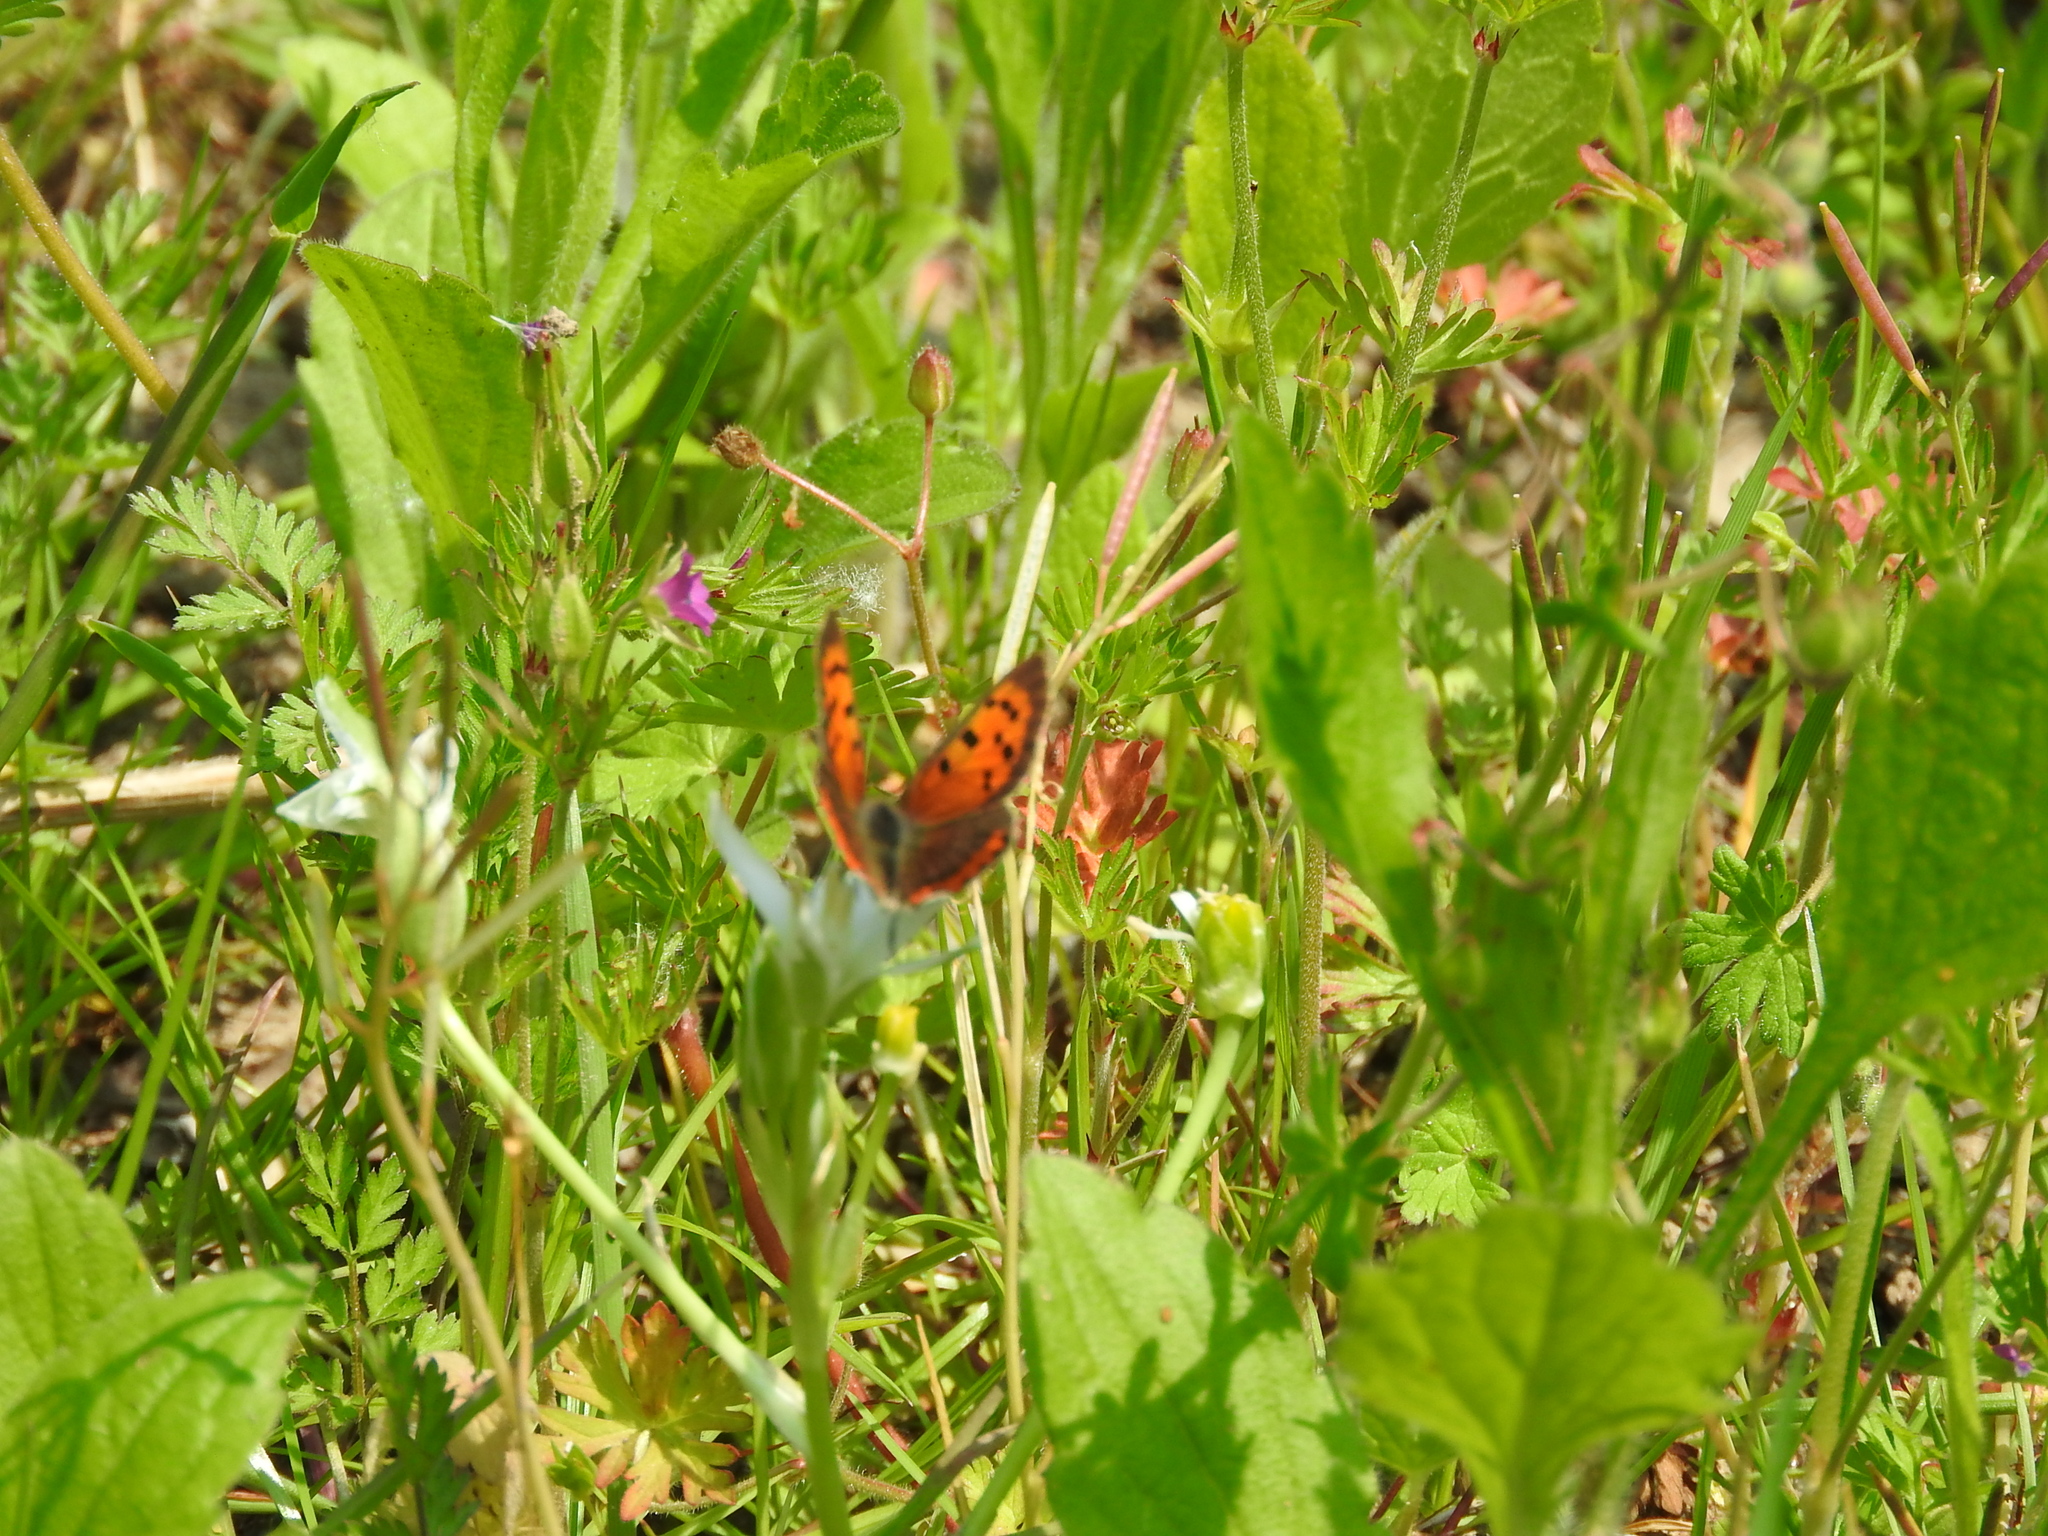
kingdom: Animalia
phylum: Arthropoda
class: Insecta
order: Lepidoptera
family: Lycaenidae
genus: Lycaena
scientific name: Lycaena phlaeas
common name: Small copper
